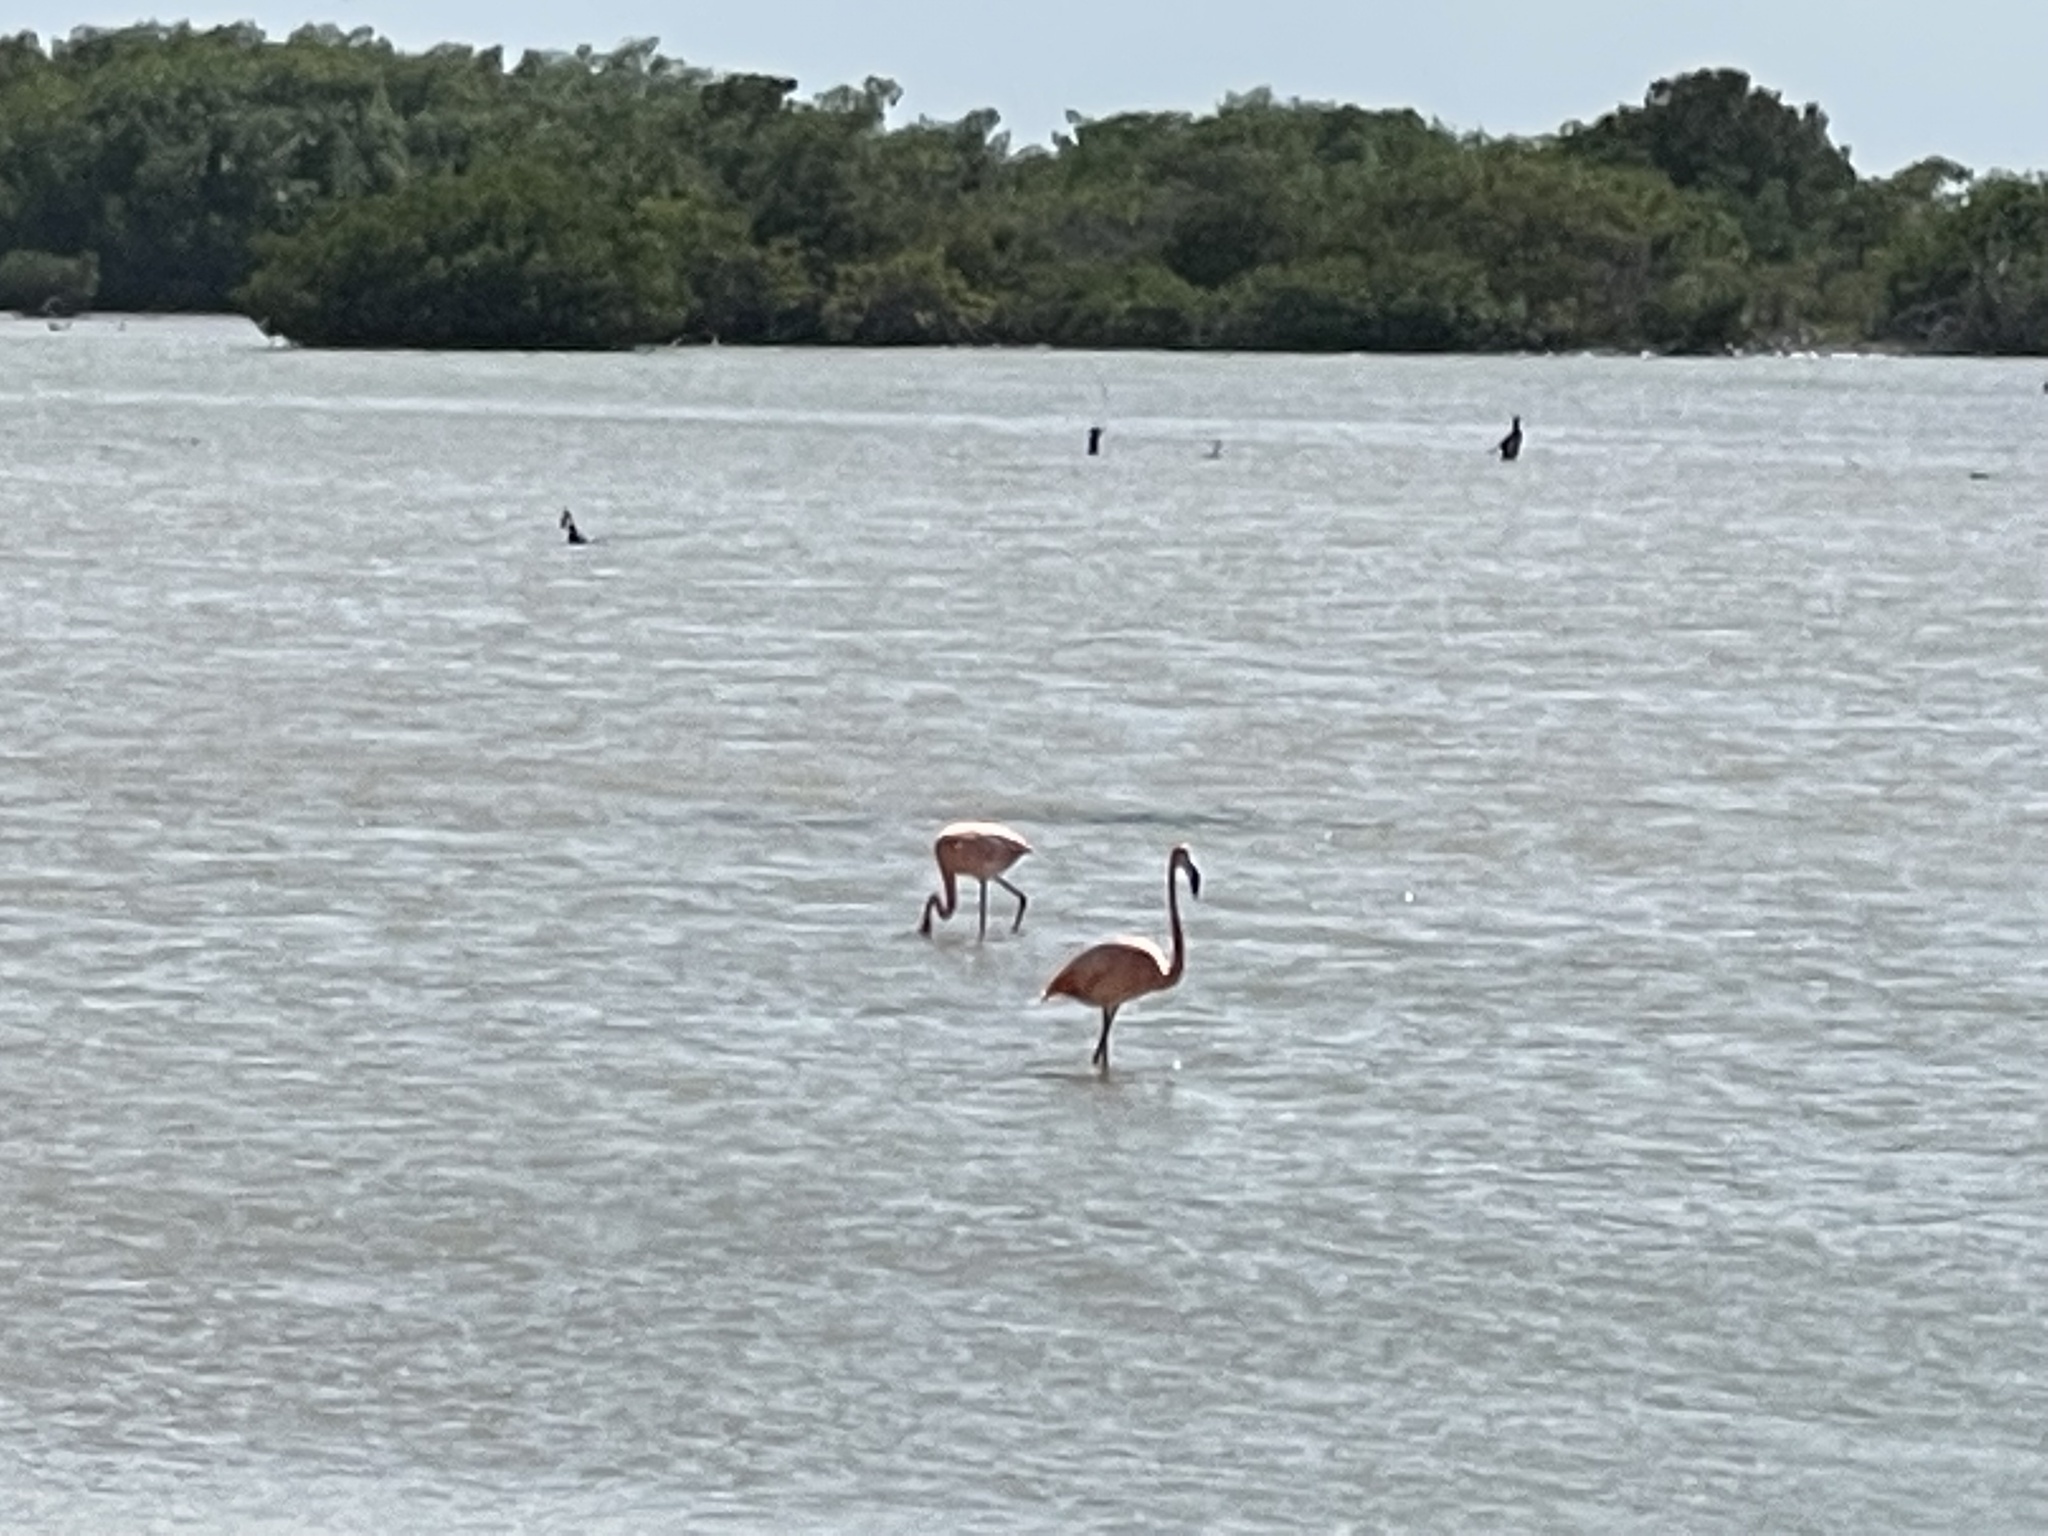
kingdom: Animalia
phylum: Chordata
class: Aves
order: Phoenicopteriformes
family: Phoenicopteridae
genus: Phoenicopterus
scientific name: Phoenicopterus ruber
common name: American flamingo
